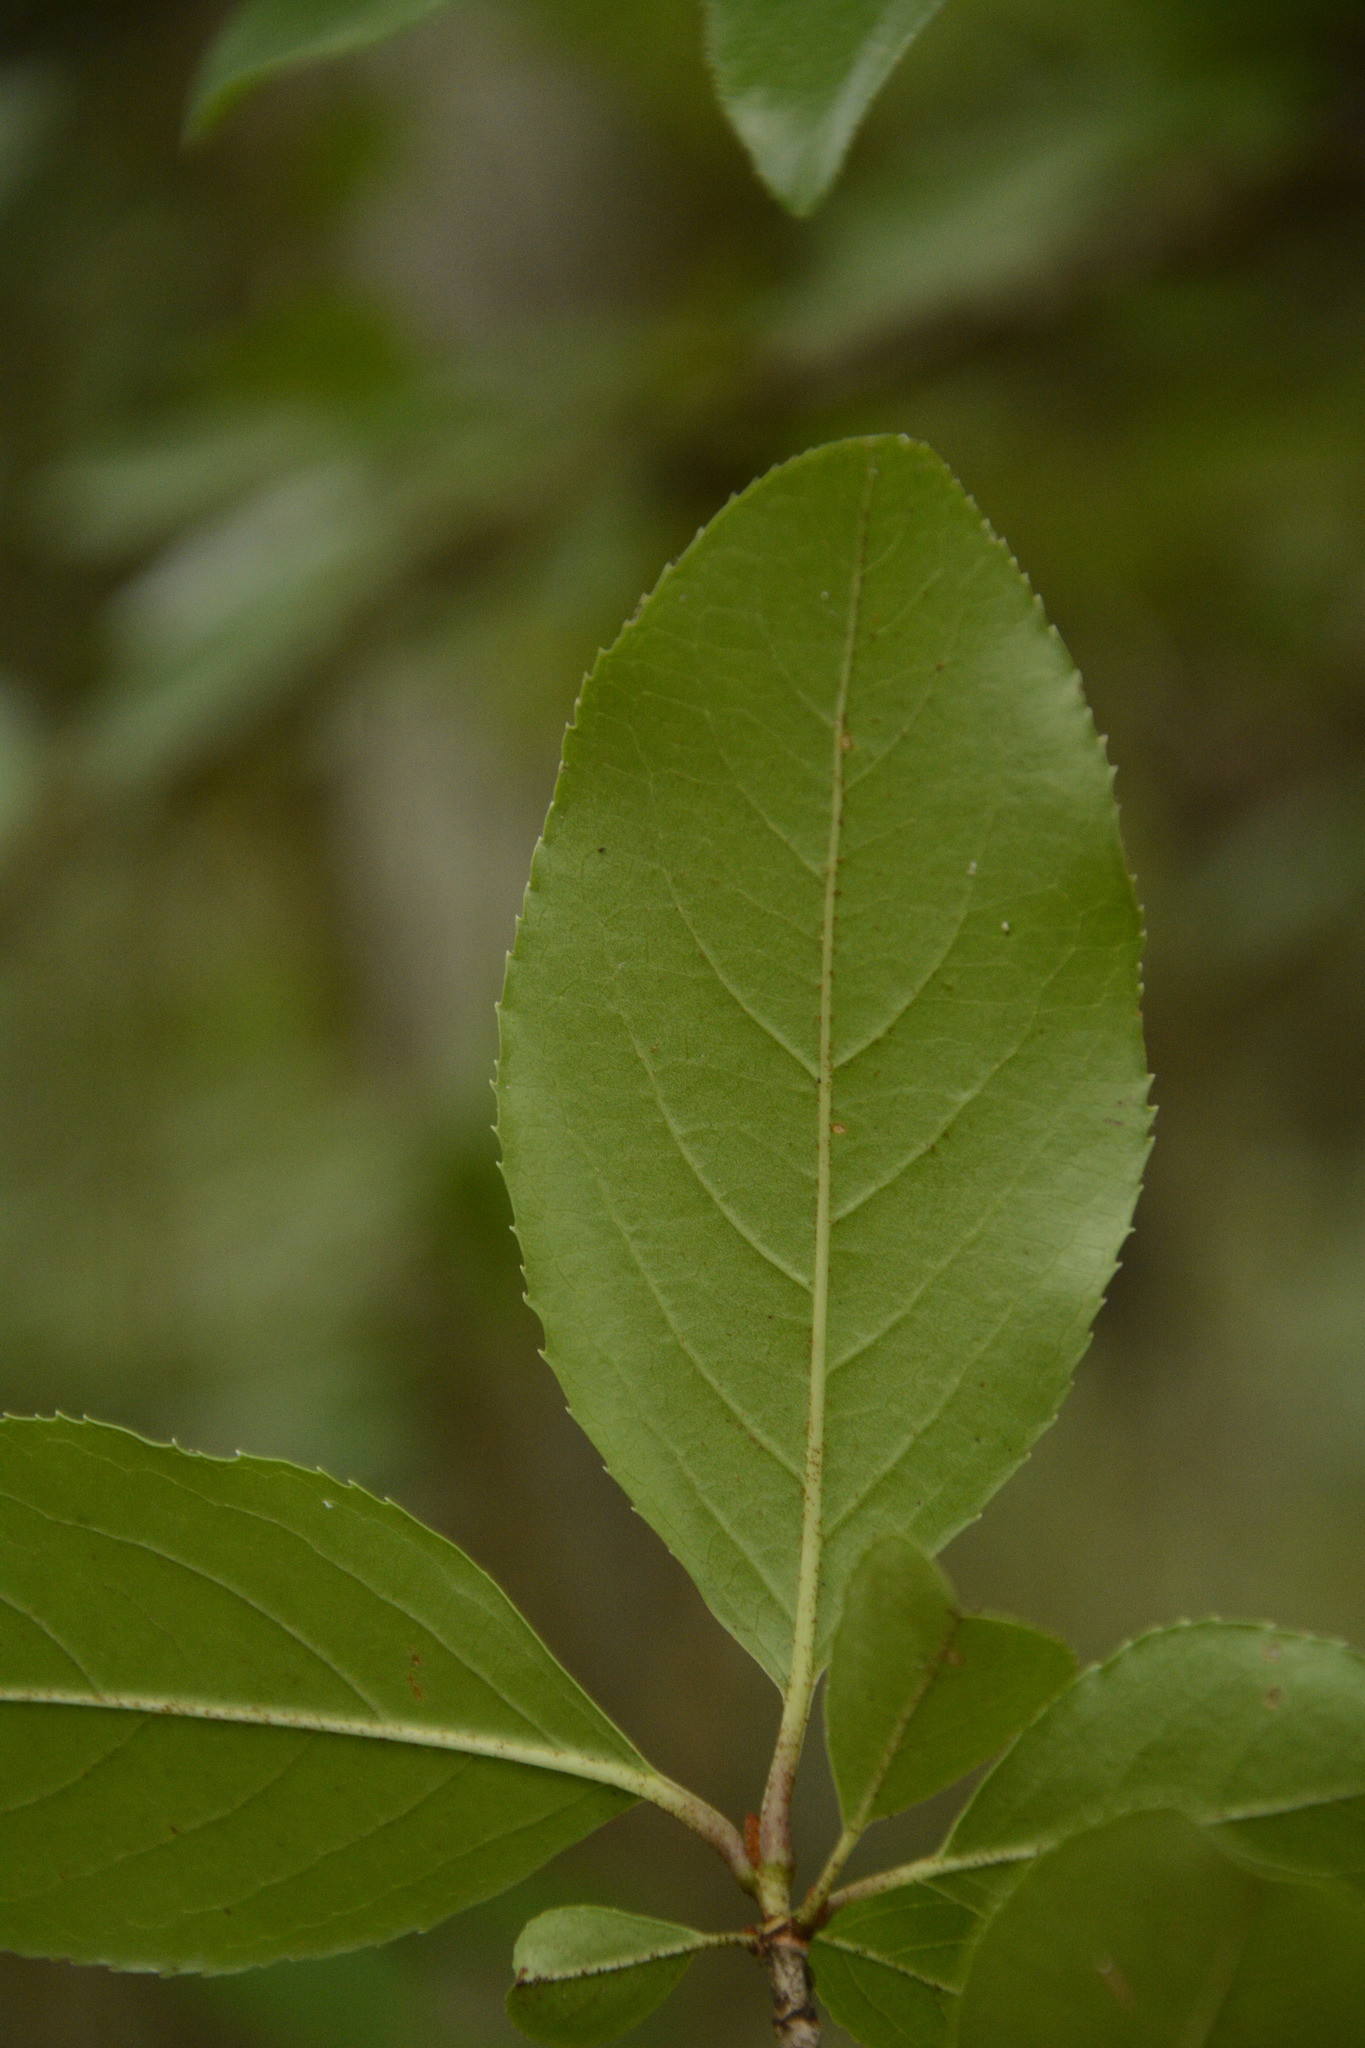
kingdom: Plantae
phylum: Tracheophyta
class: Magnoliopsida
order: Dipsacales
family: Viburnaceae
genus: Viburnum
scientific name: Viburnum rufidulum
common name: Blue haw
